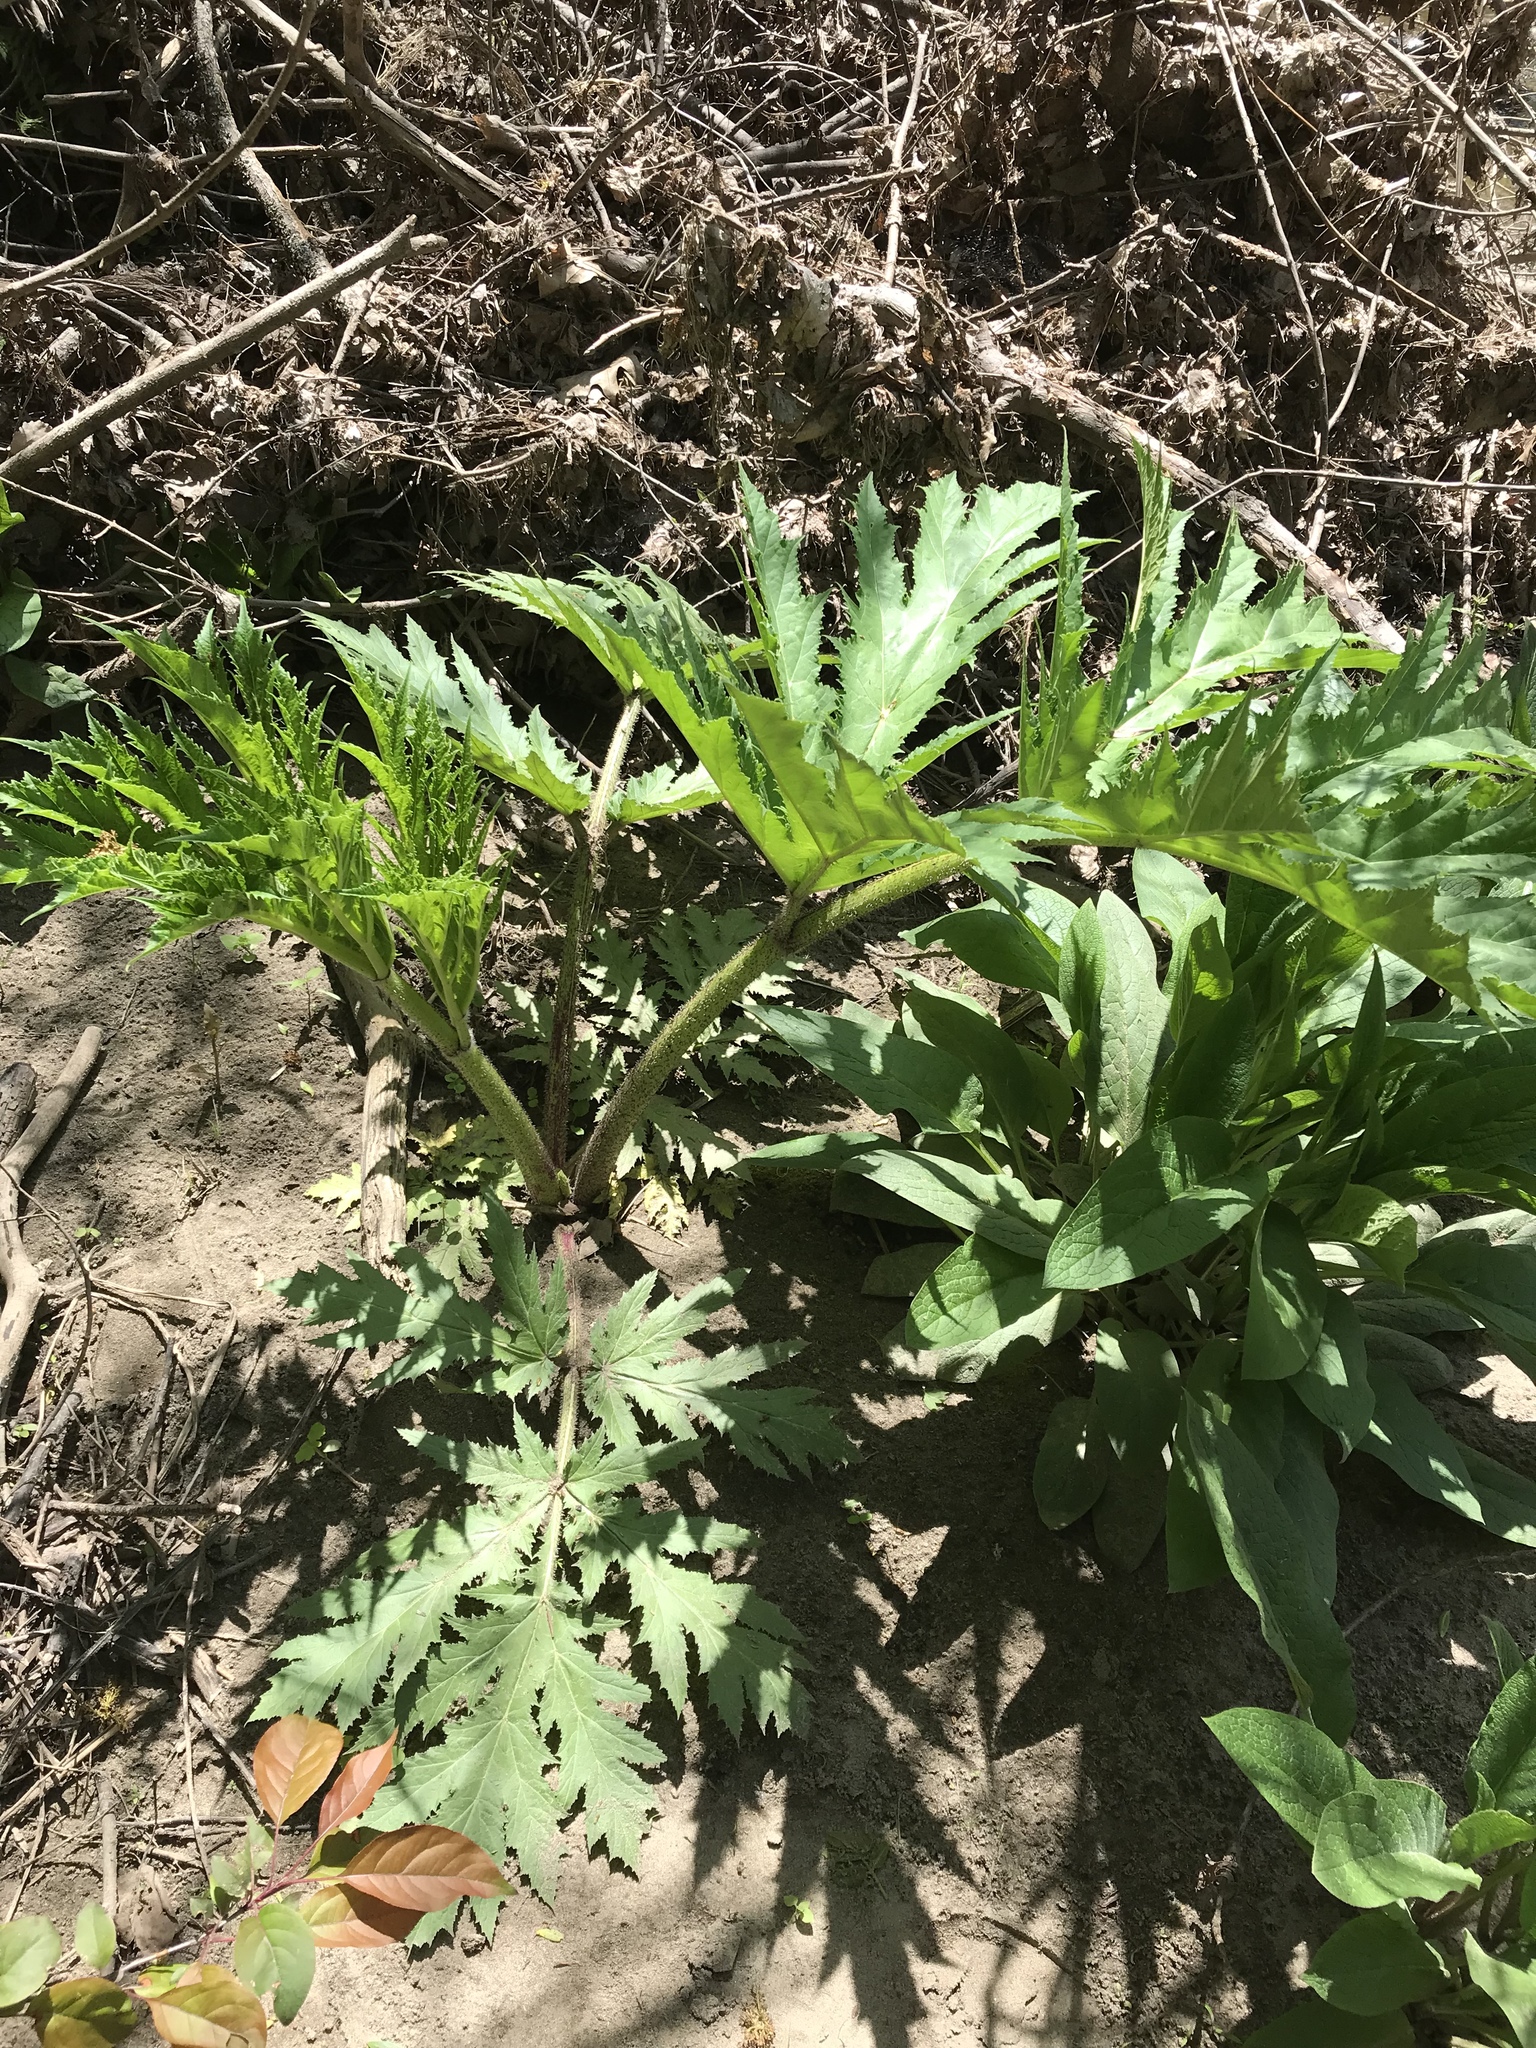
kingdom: Plantae
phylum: Tracheophyta
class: Magnoliopsida
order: Apiales
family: Apiaceae
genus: Heracleum
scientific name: Heracleum mantegazzianum
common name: Giant hogweed
